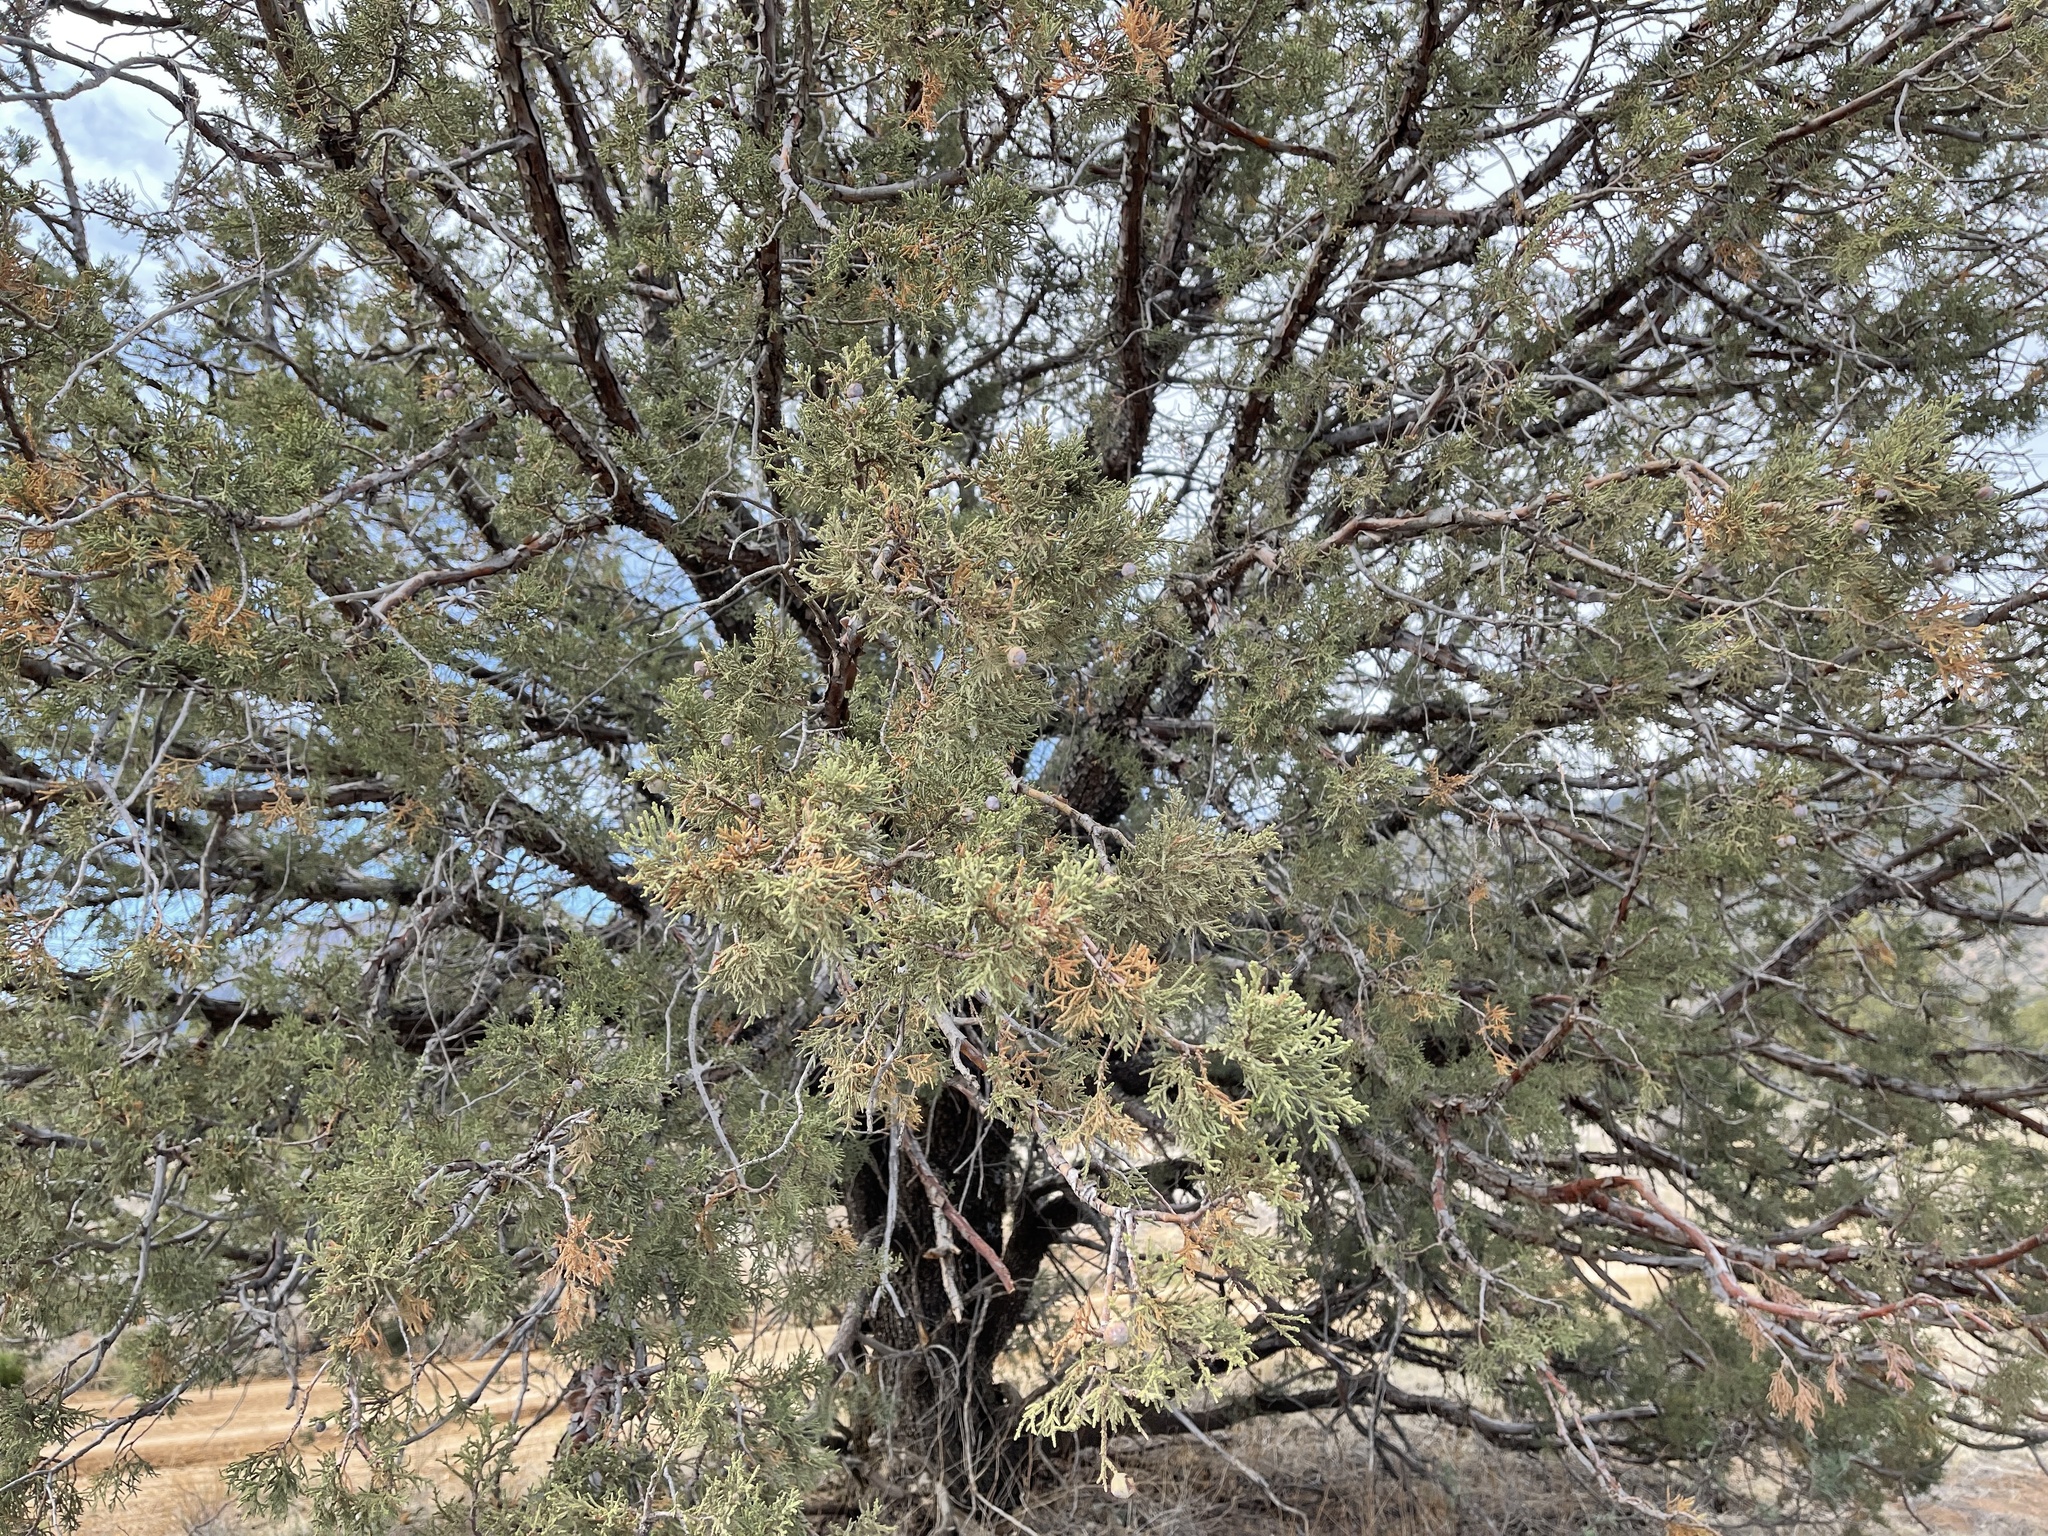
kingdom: Plantae
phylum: Tracheophyta
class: Pinopsida
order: Pinales
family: Cupressaceae
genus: Juniperus
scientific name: Juniperus deppeana
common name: Alligator juniper
